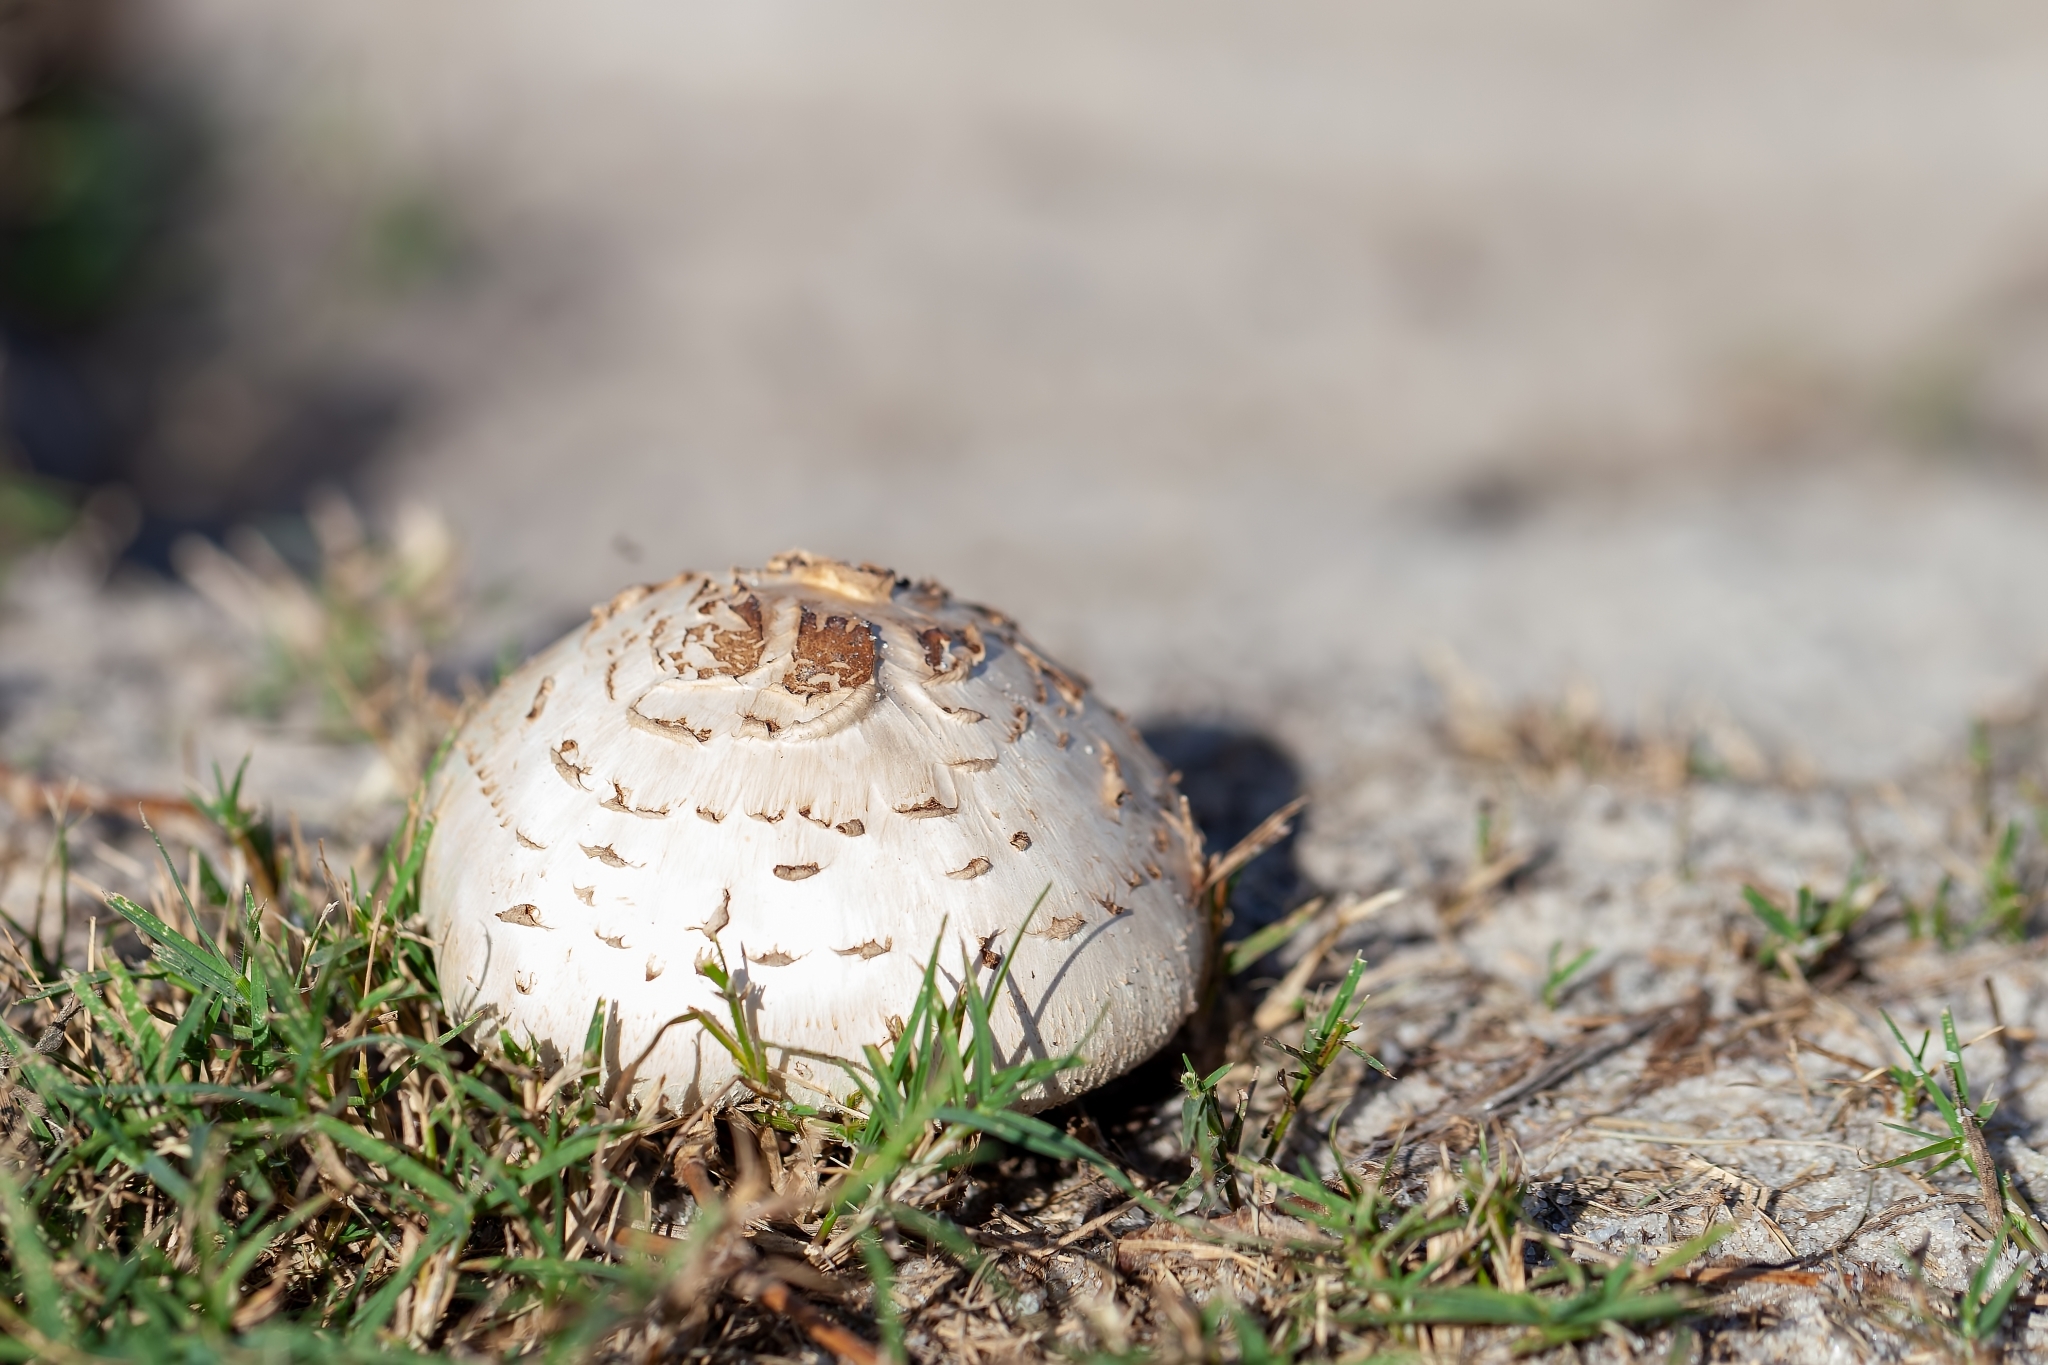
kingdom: Fungi
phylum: Basidiomycota
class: Agaricomycetes
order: Agaricales
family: Agaricaceae
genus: Chlorophyllum
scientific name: Chlorophyllum molybdites
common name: False parasol
